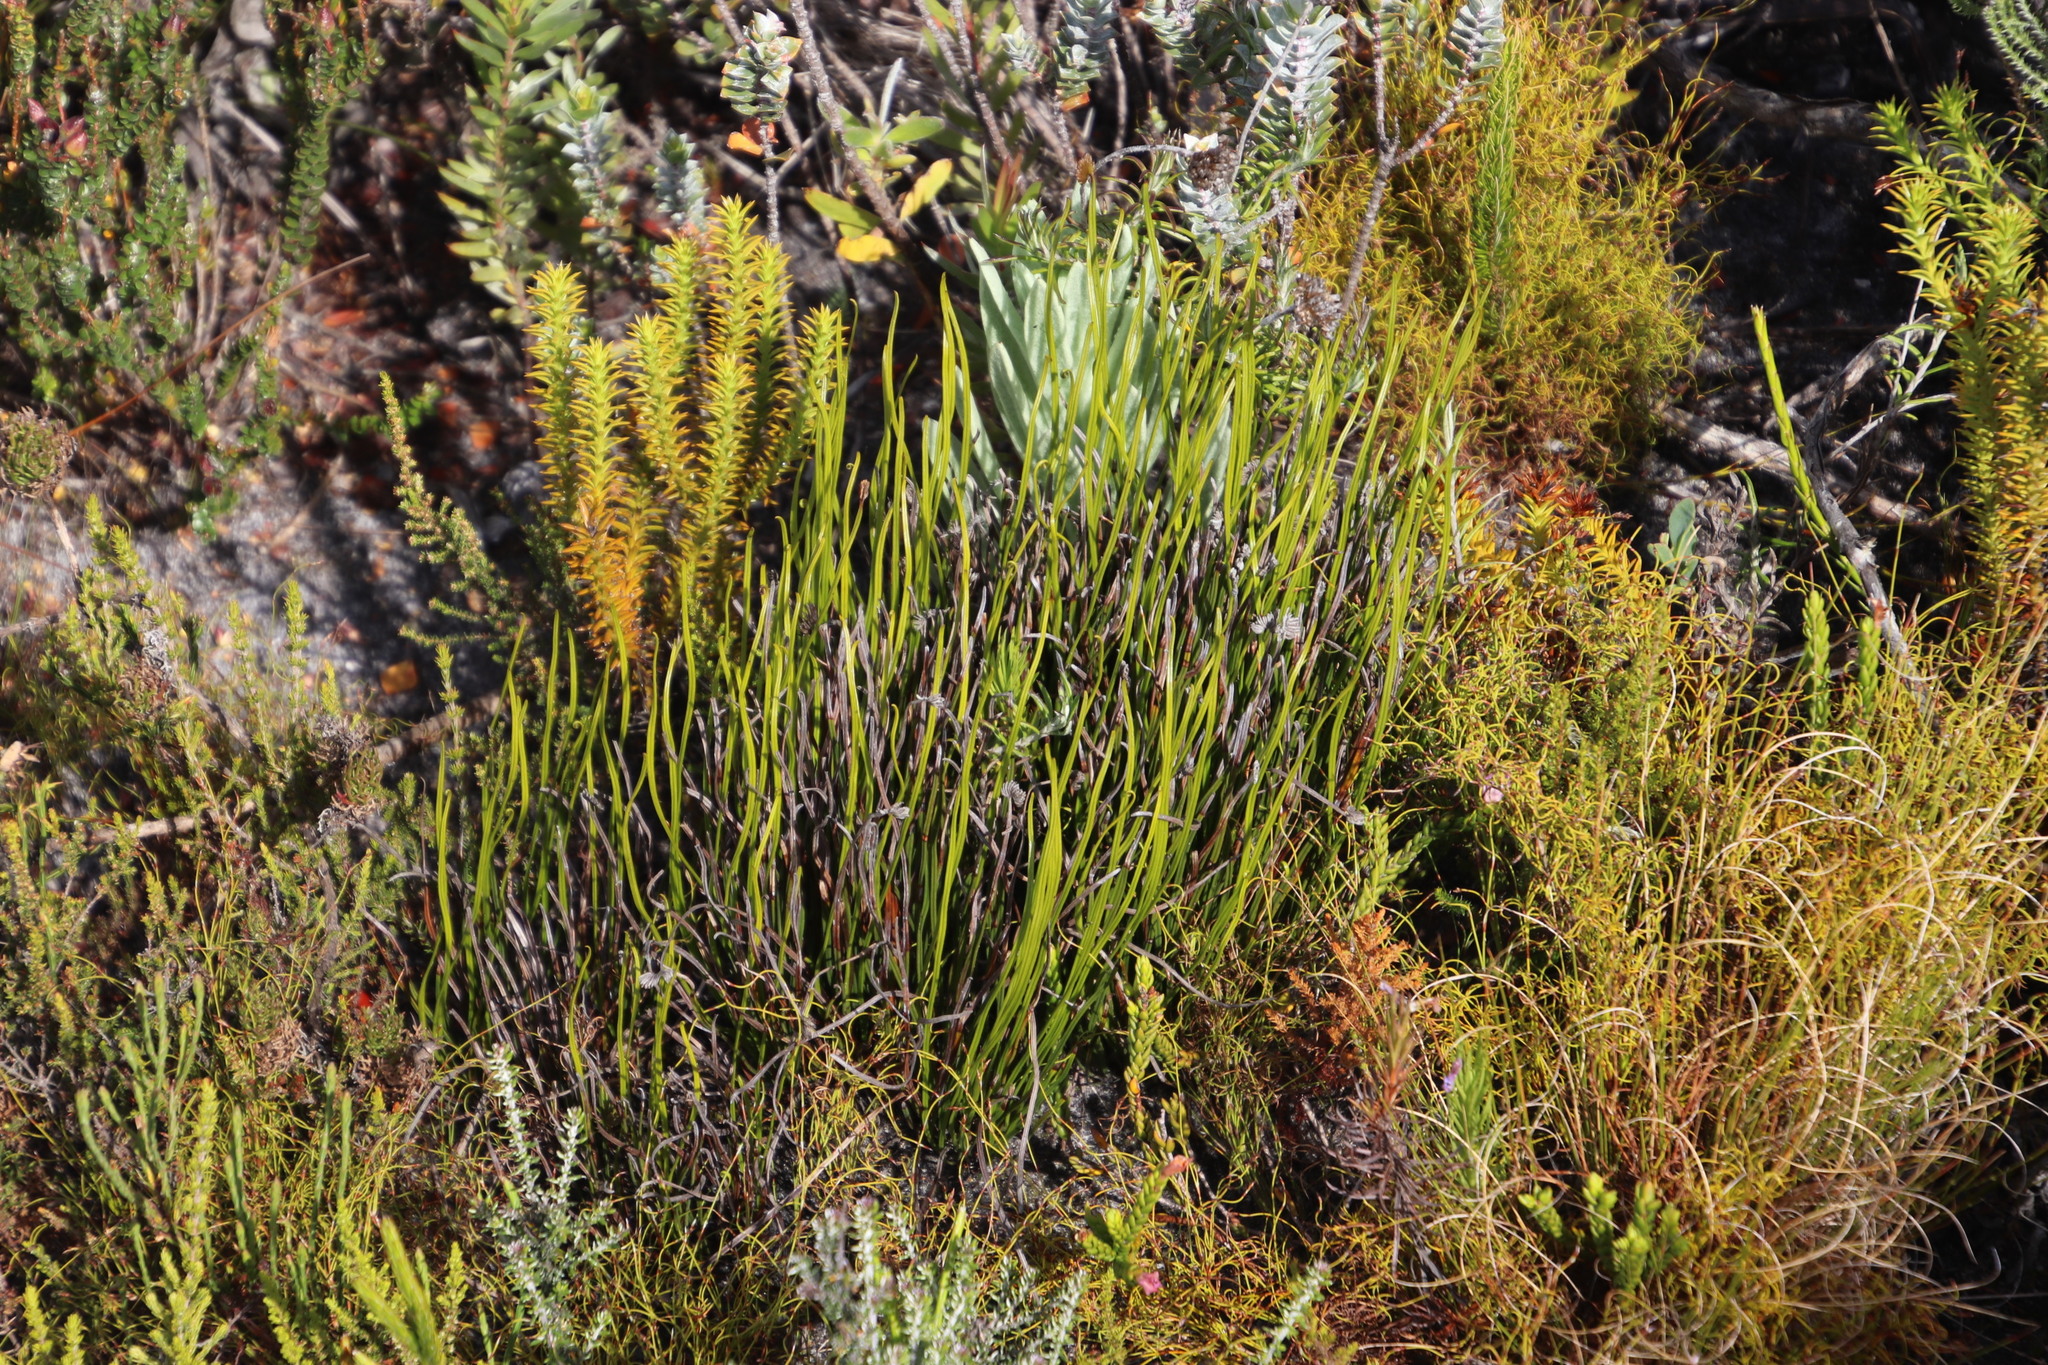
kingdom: Plantae
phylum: Tracheophyta
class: Polypodiopsida
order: Schizaeales
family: Schizaeaceae
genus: Schizaea
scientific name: Schizaea pectinata
